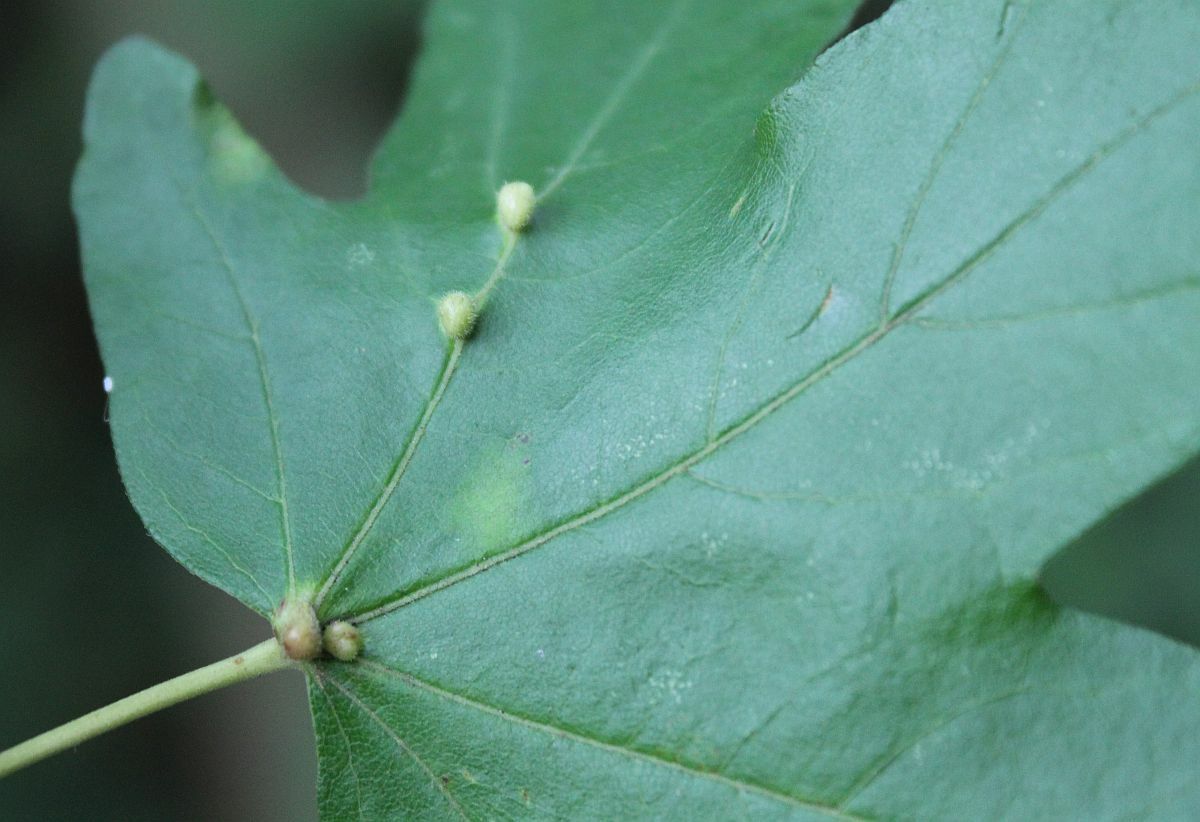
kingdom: Animalia
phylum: Arthropoda
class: Arachnida
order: Trombidiformes
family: Eriophyidae
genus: Aceria
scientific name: Aceria macrochelus
